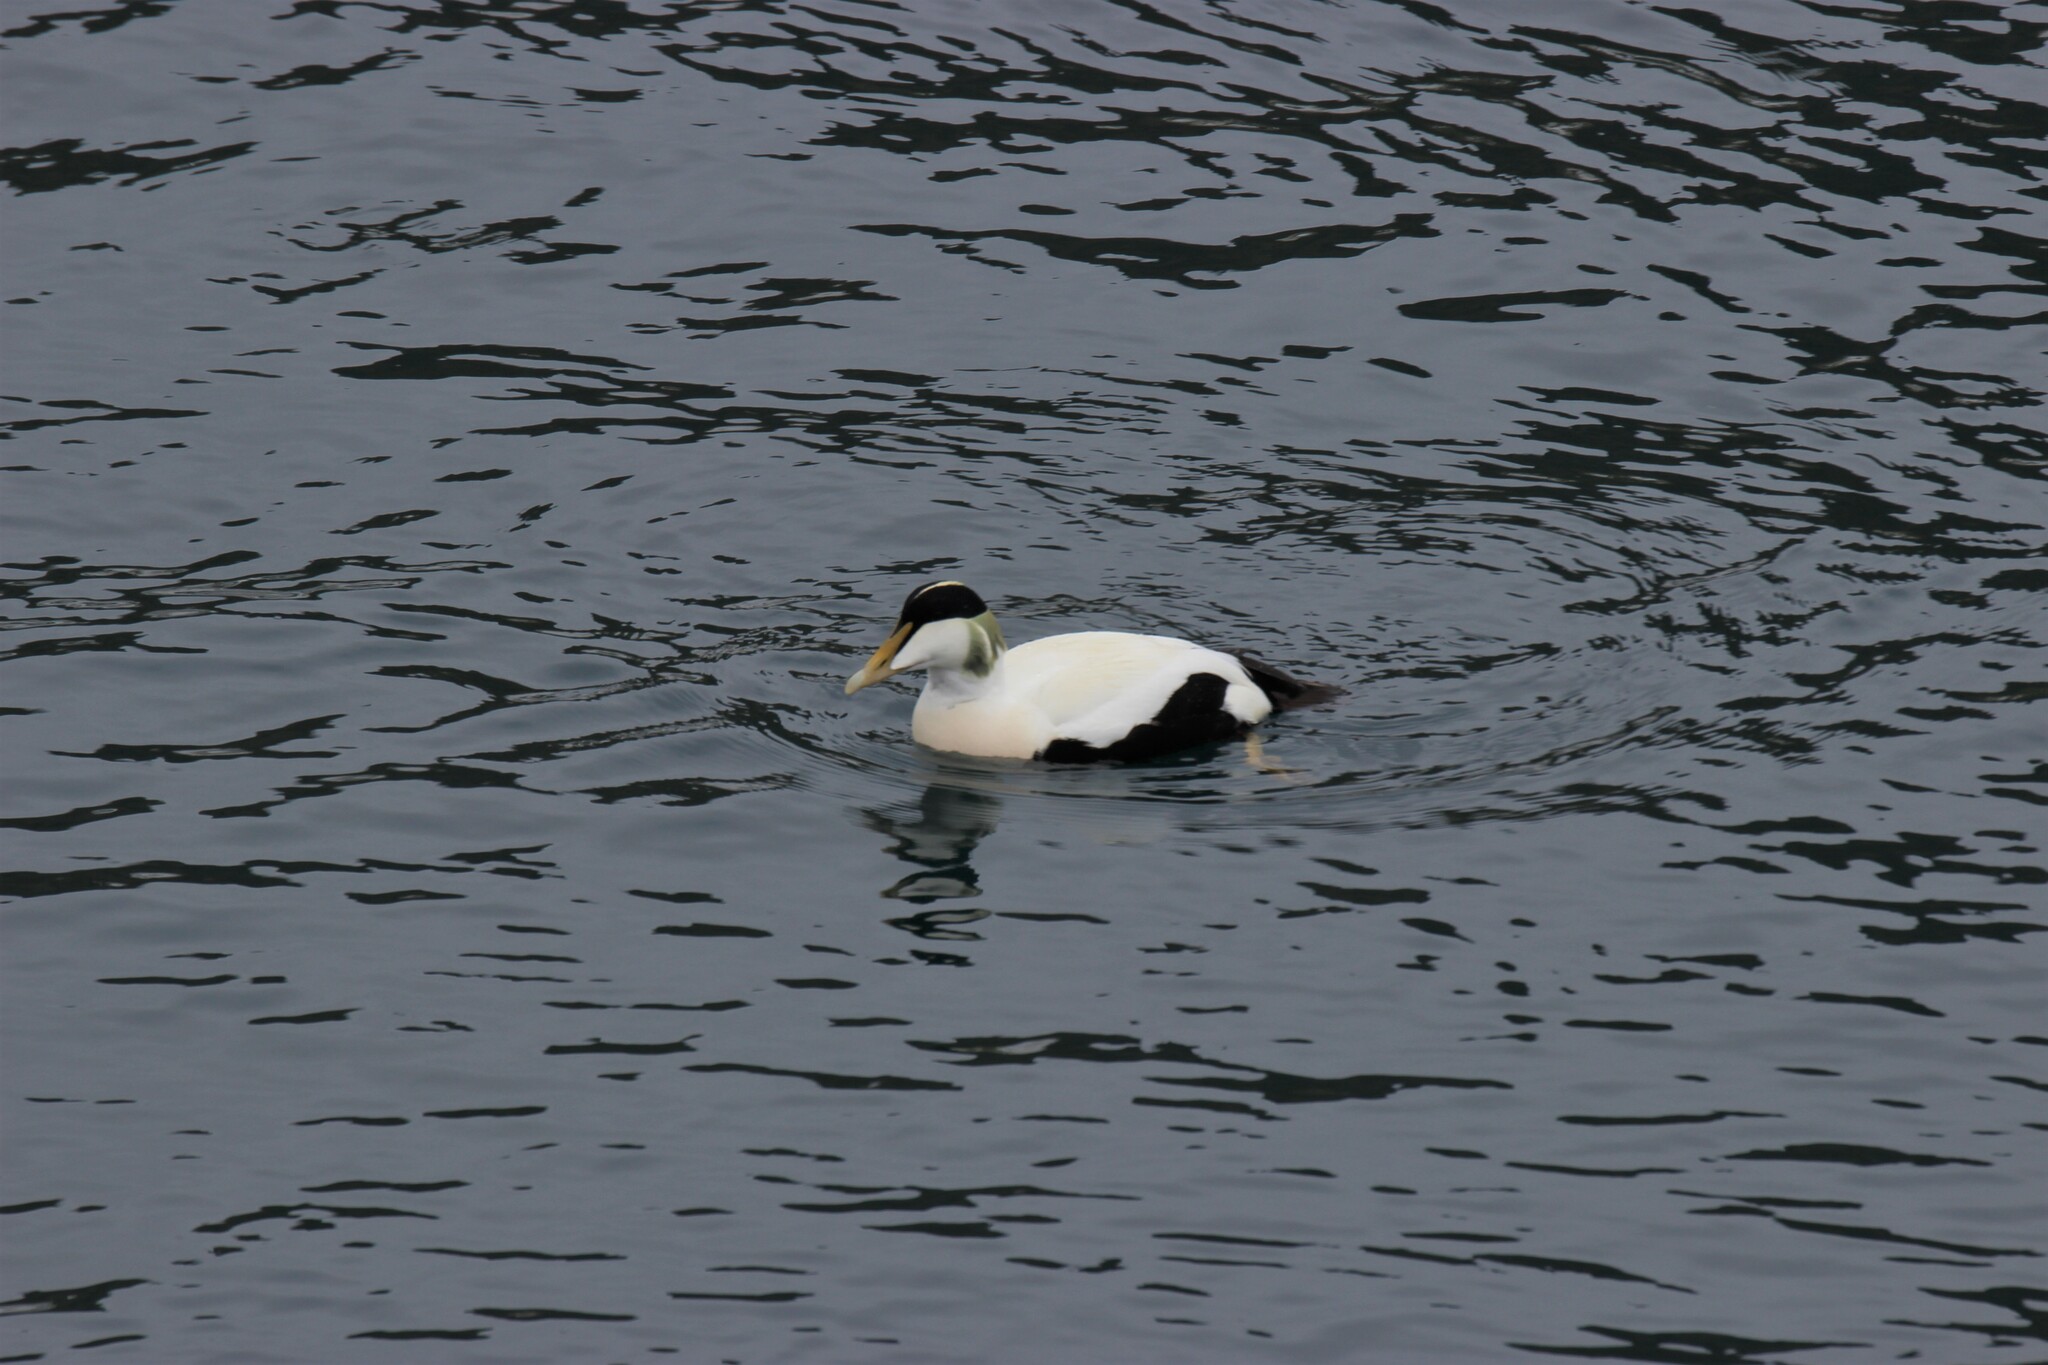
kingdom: Animalia
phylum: Chordata
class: Aves
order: Anseriformes
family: Anatidae
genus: Somateria
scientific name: Somateria mollissima
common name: Common eider
